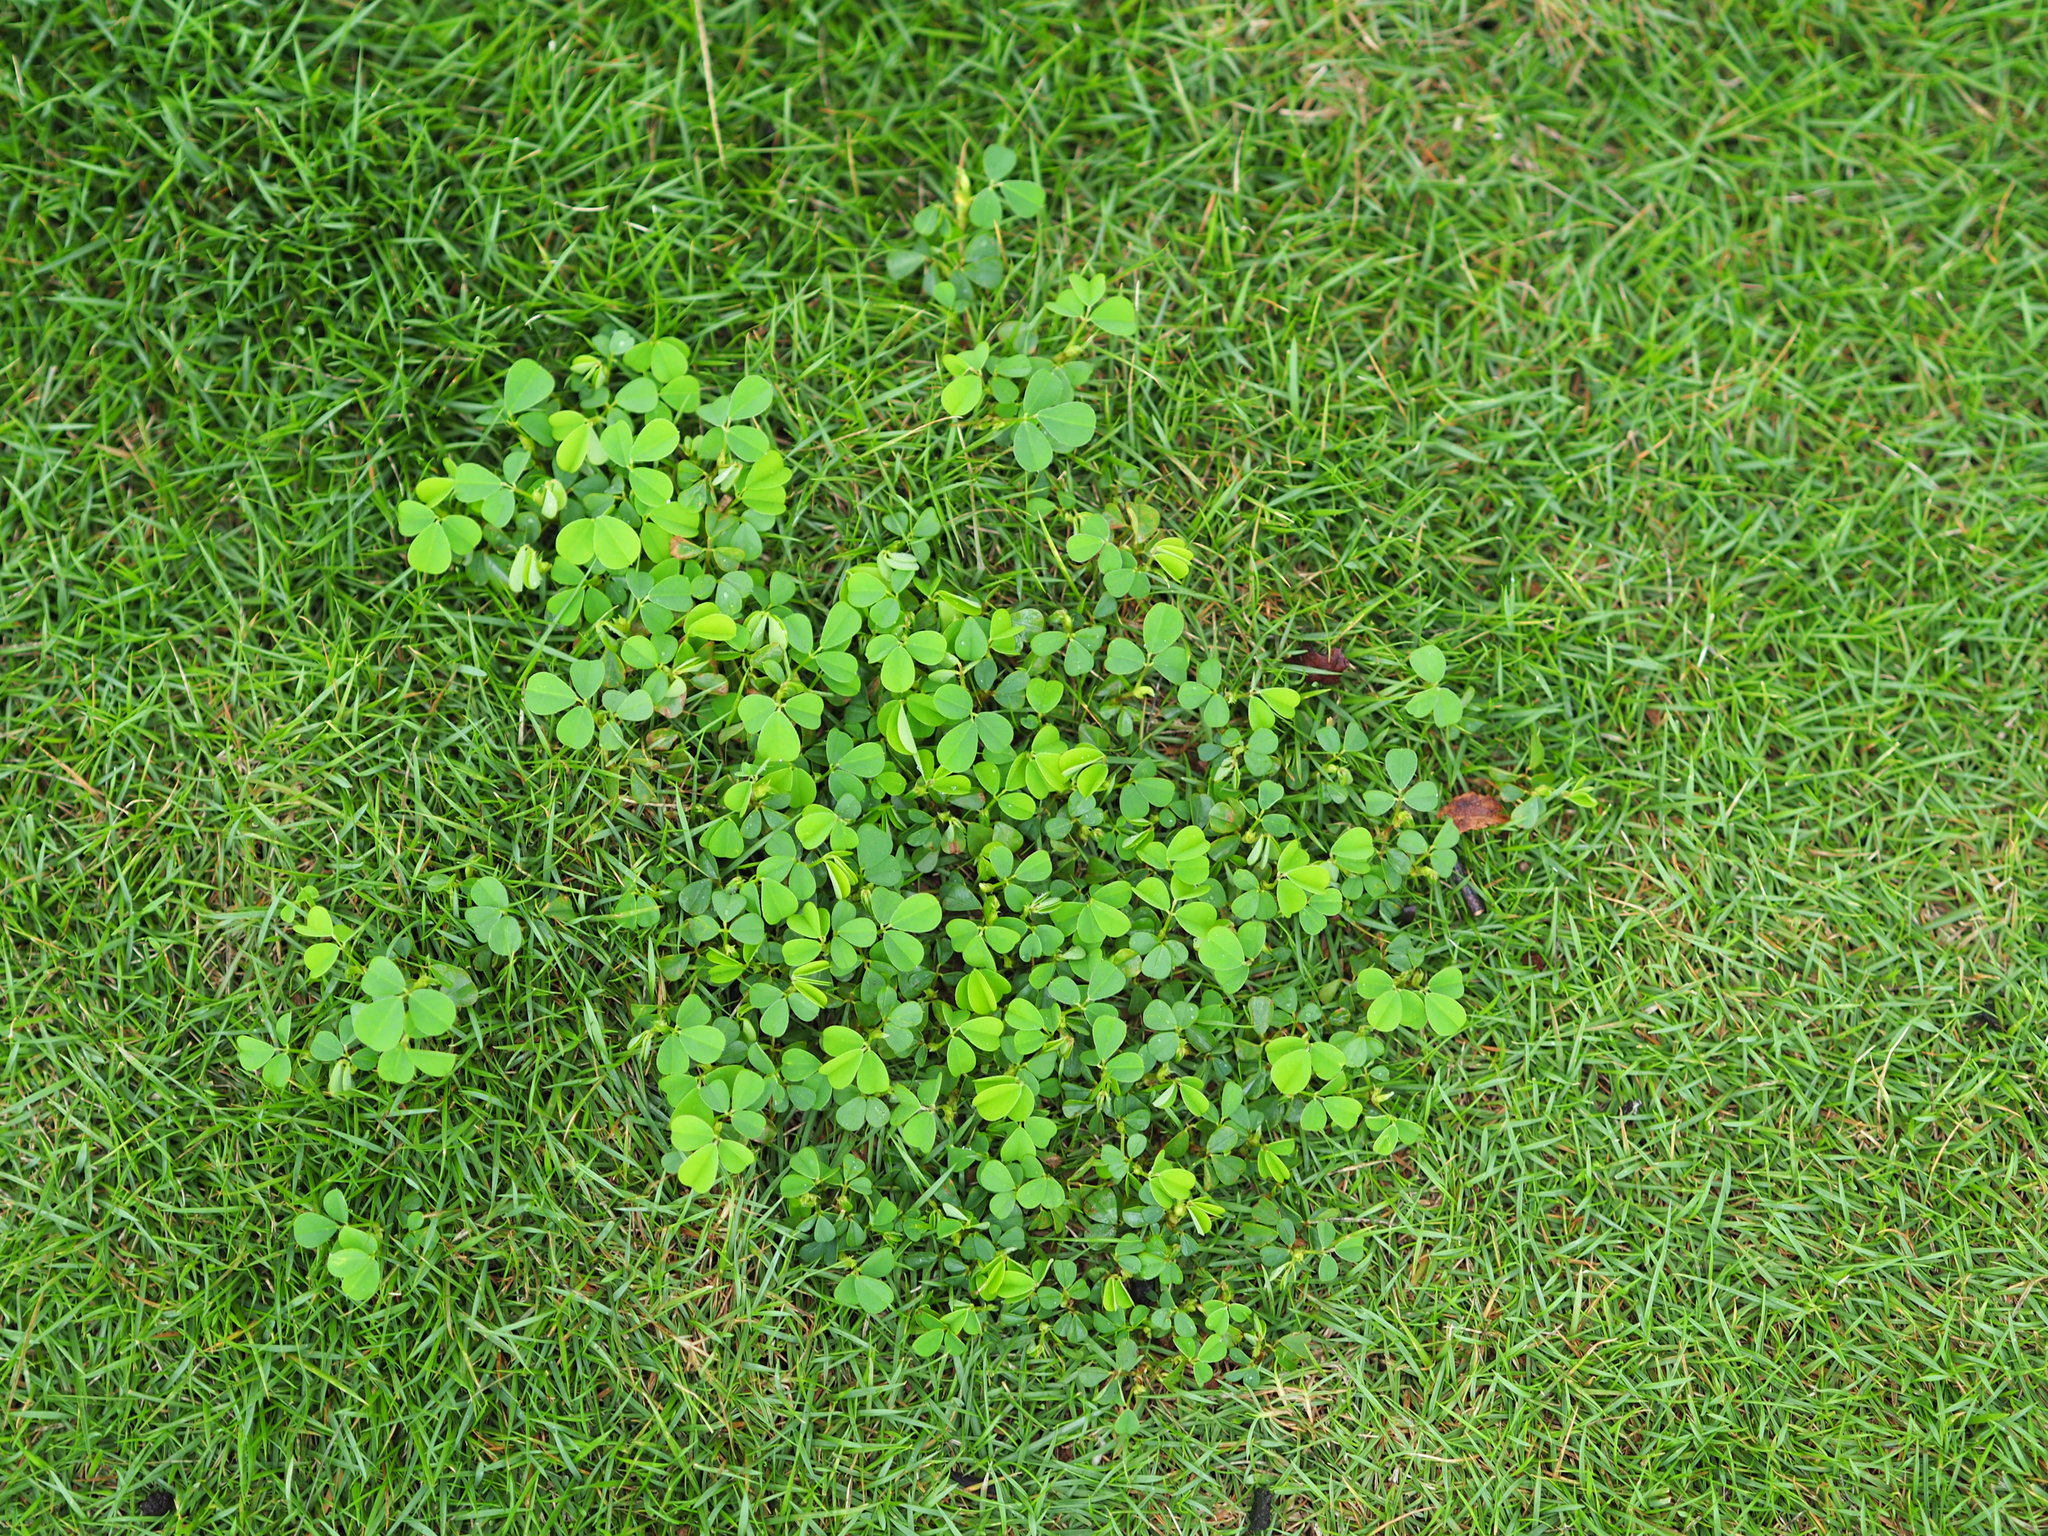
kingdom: Plantae
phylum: Tracheophyta
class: Magnoliopsida
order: Fabales
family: Fabaceae
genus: Grona
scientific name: Grona triflora
